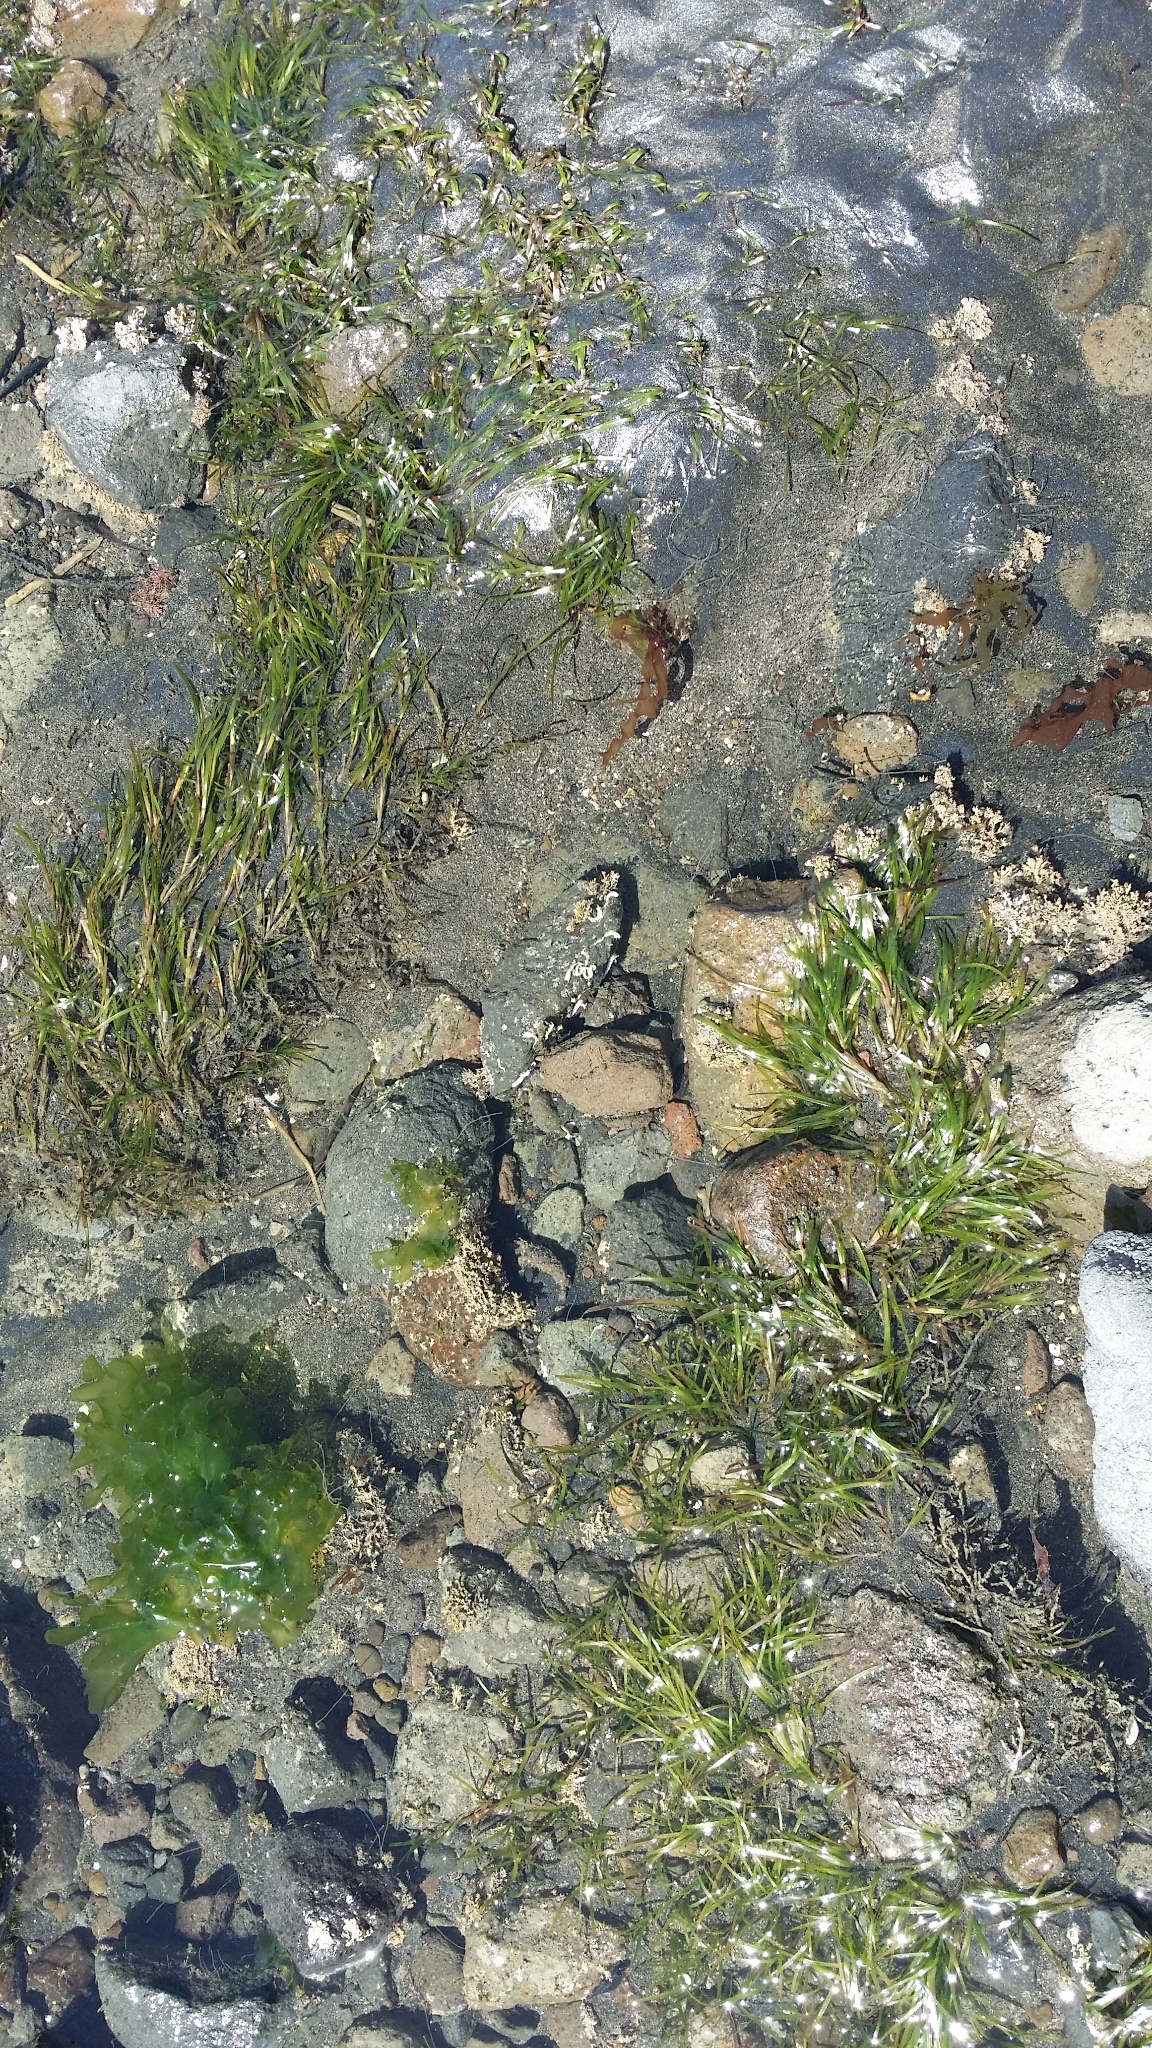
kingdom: Plantae
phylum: Tracheophyta
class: Liliopsida
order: Alismatales
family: Zosteraceae
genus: Zostera
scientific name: Zostera muelleri
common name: Species code: zc
